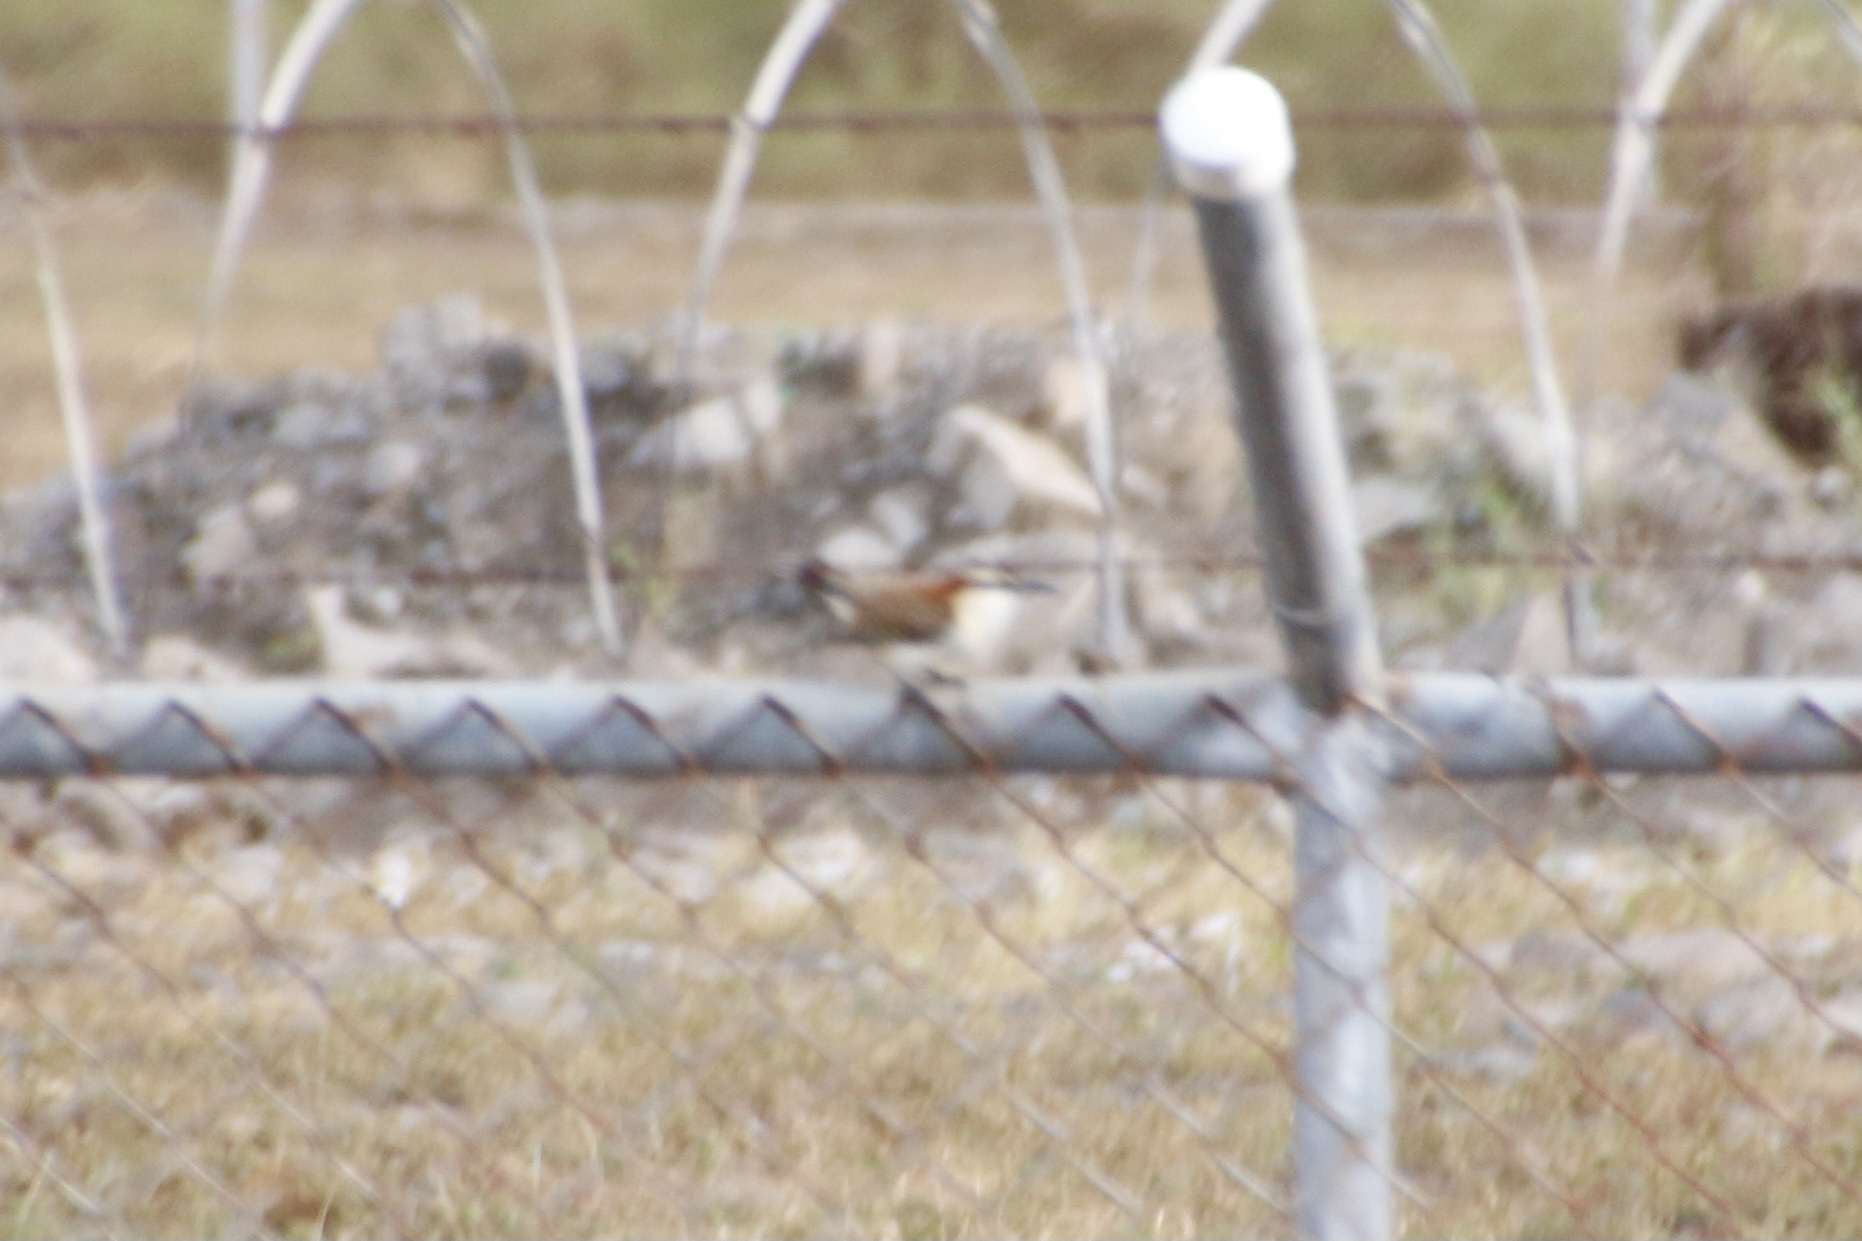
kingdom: Animalia
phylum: Chordata
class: Aves
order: Passeriformes
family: Troglodytidae
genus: Campylorhynchus
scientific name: Campylorhynchus rufinucha
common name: Rufous-naped wren
